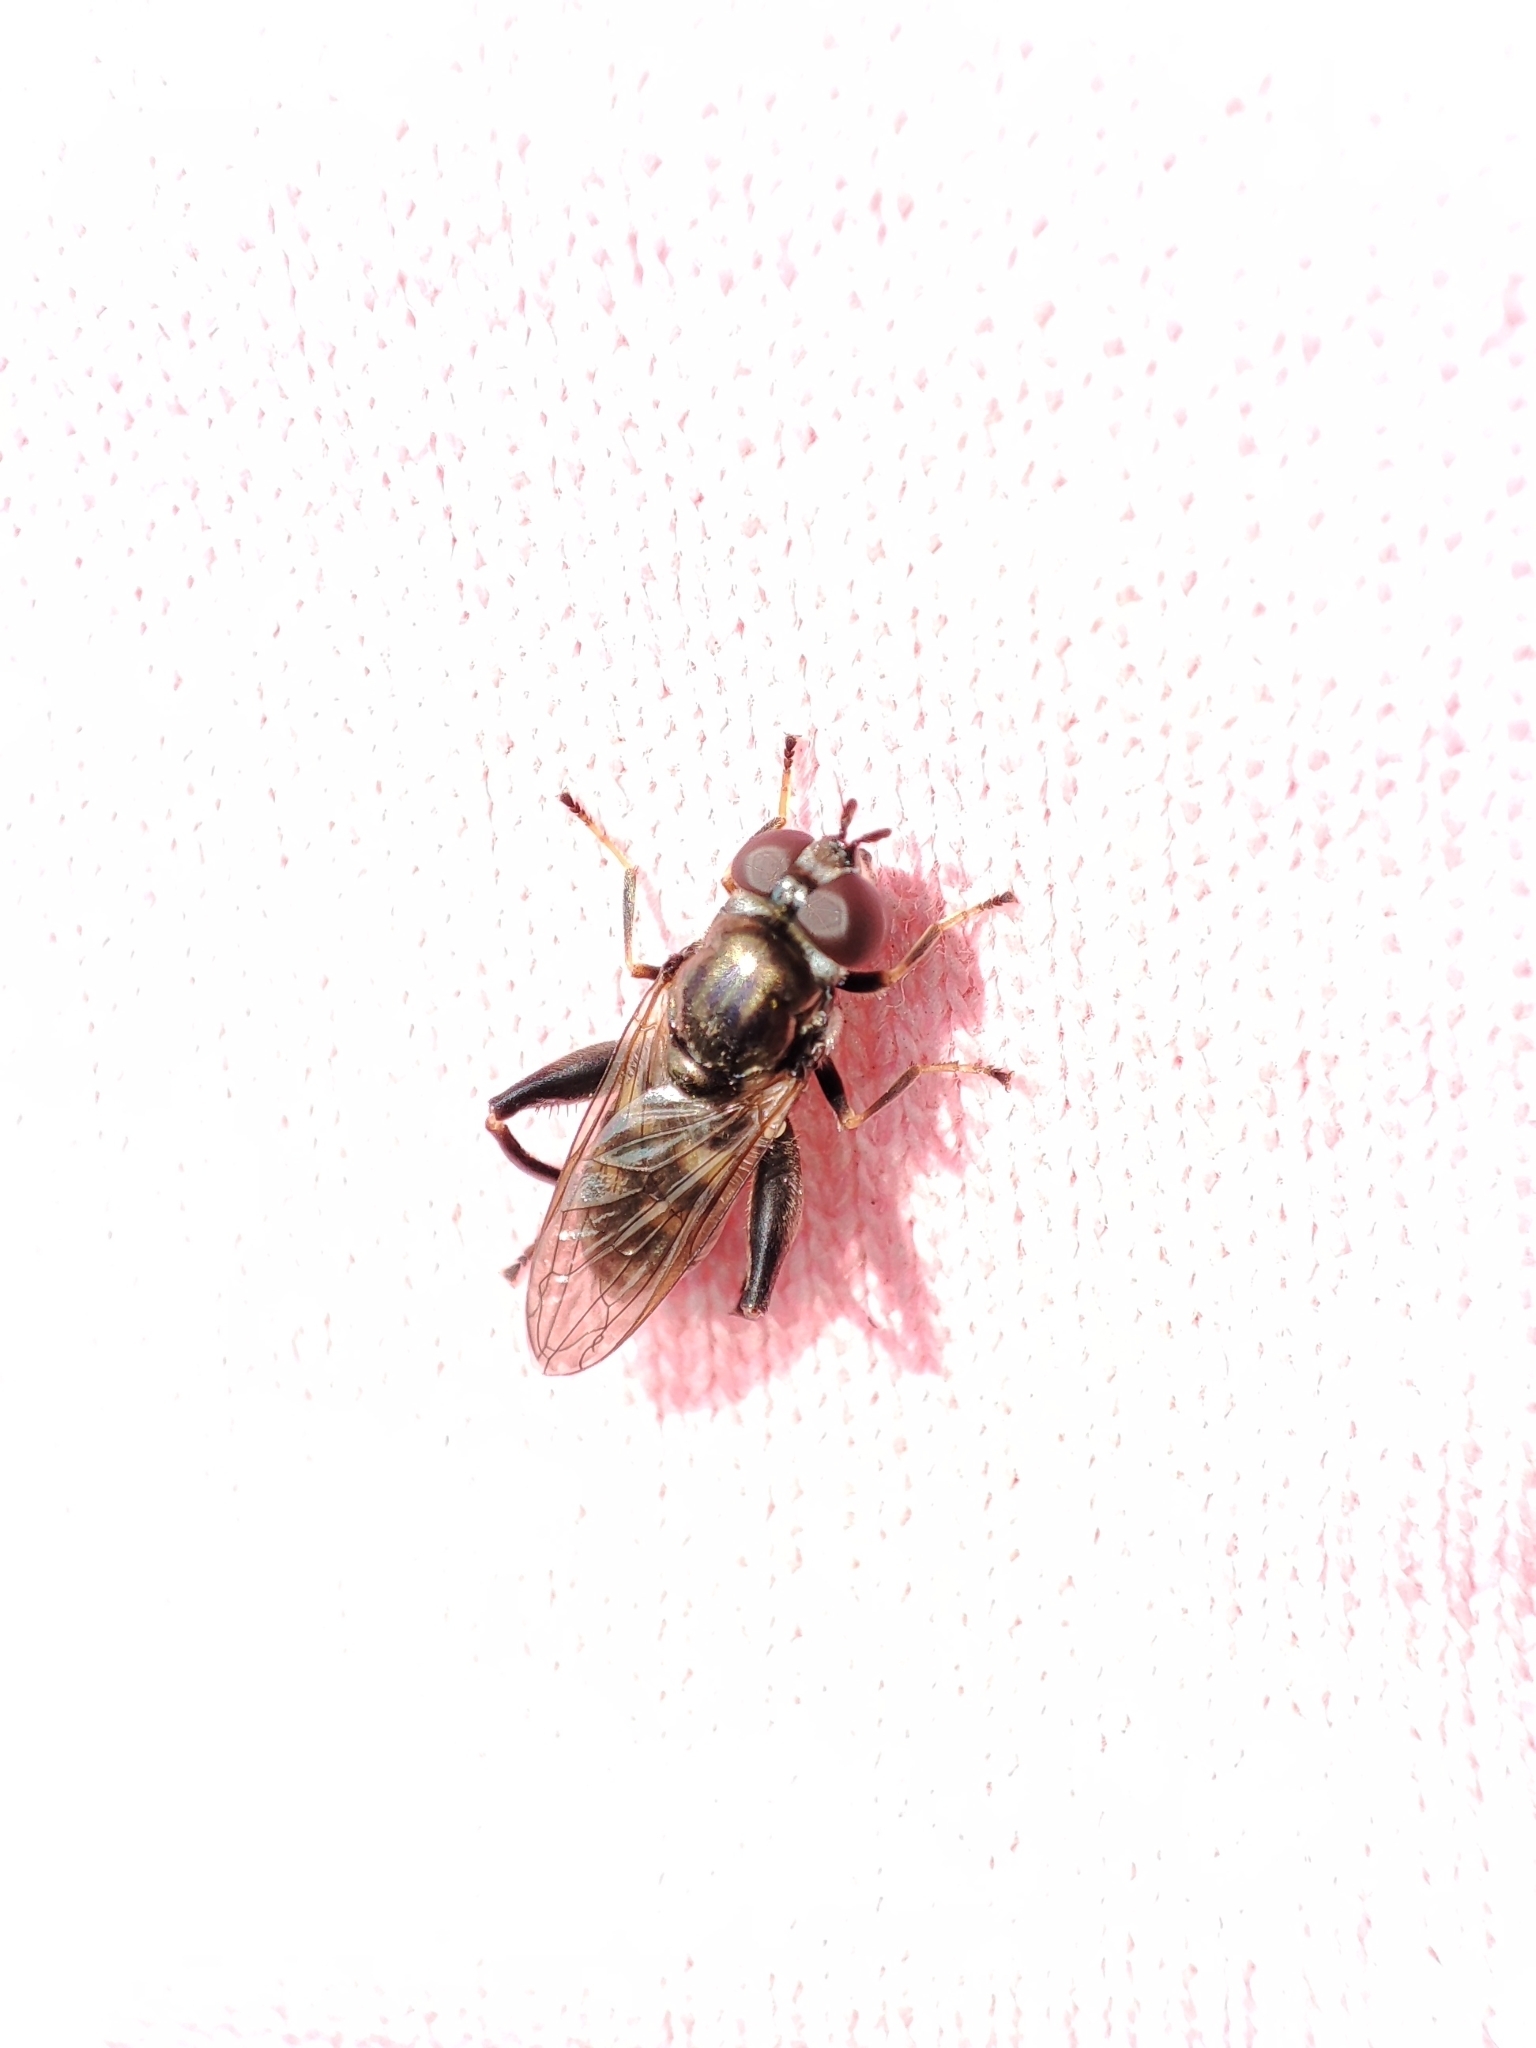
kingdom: Animalia
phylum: Arthropoda
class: Insecta
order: Diptera
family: Syrphidae
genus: Chalcosyrphus
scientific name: Chalcosyrphus nemorum
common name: Dusky-banded forest fly
